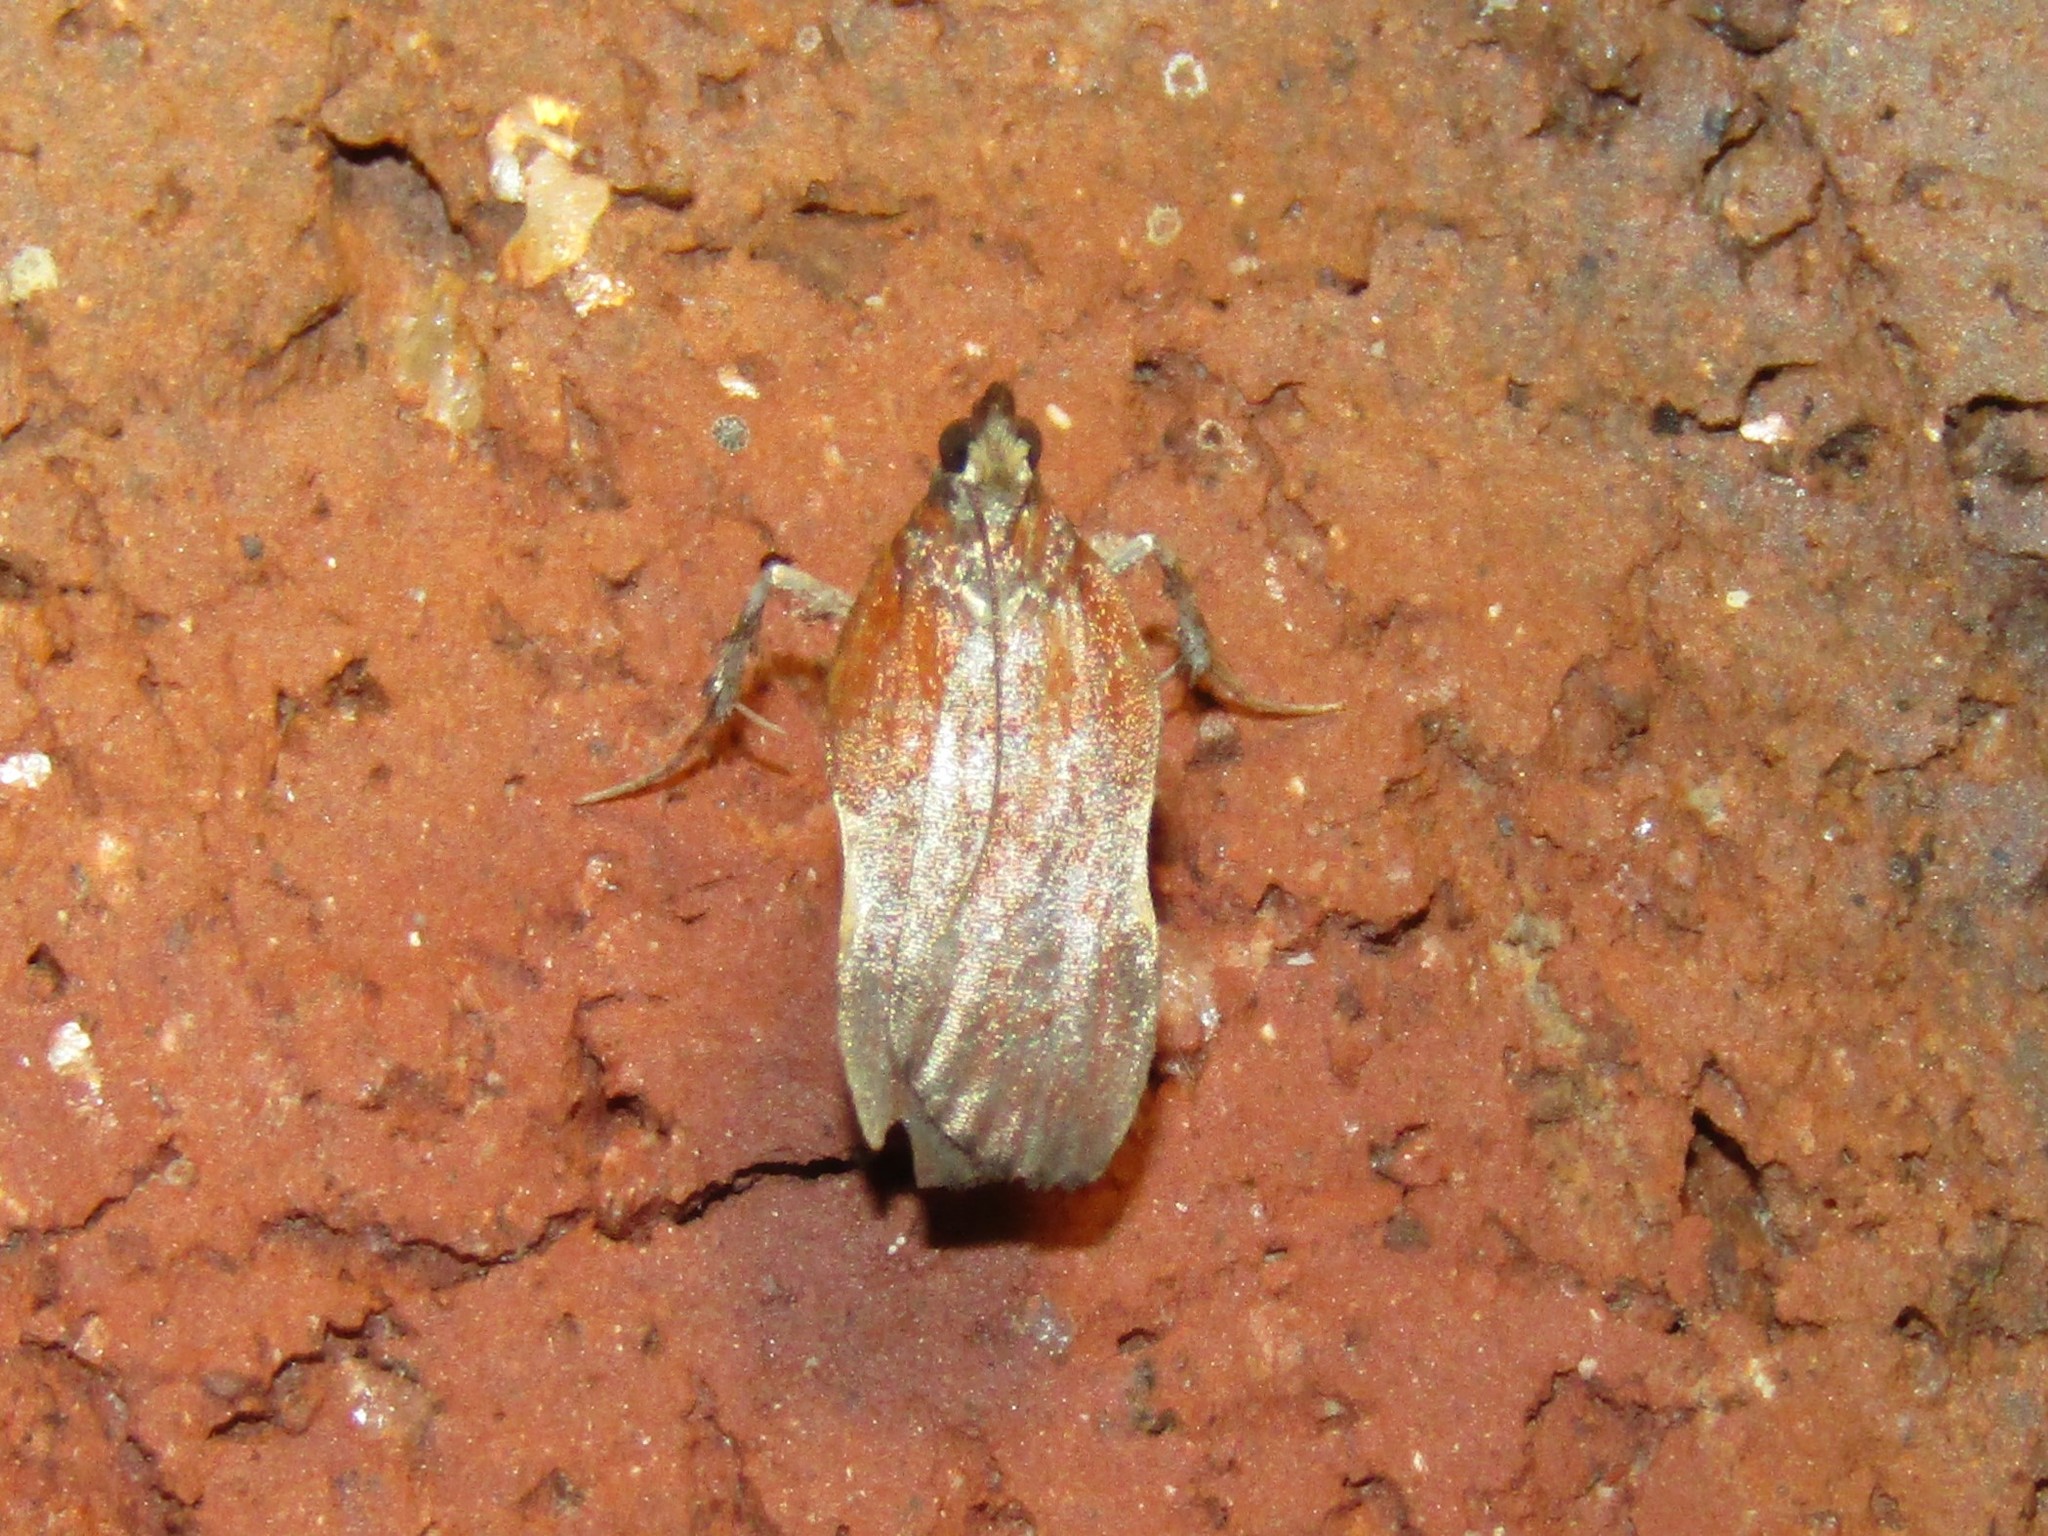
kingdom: Animalia
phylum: Arthropoda
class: Insecta
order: Lepidoptera
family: Pyralidae
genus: Galasa
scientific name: Galasa nigrinodis
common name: Boxwood leaftier moth
